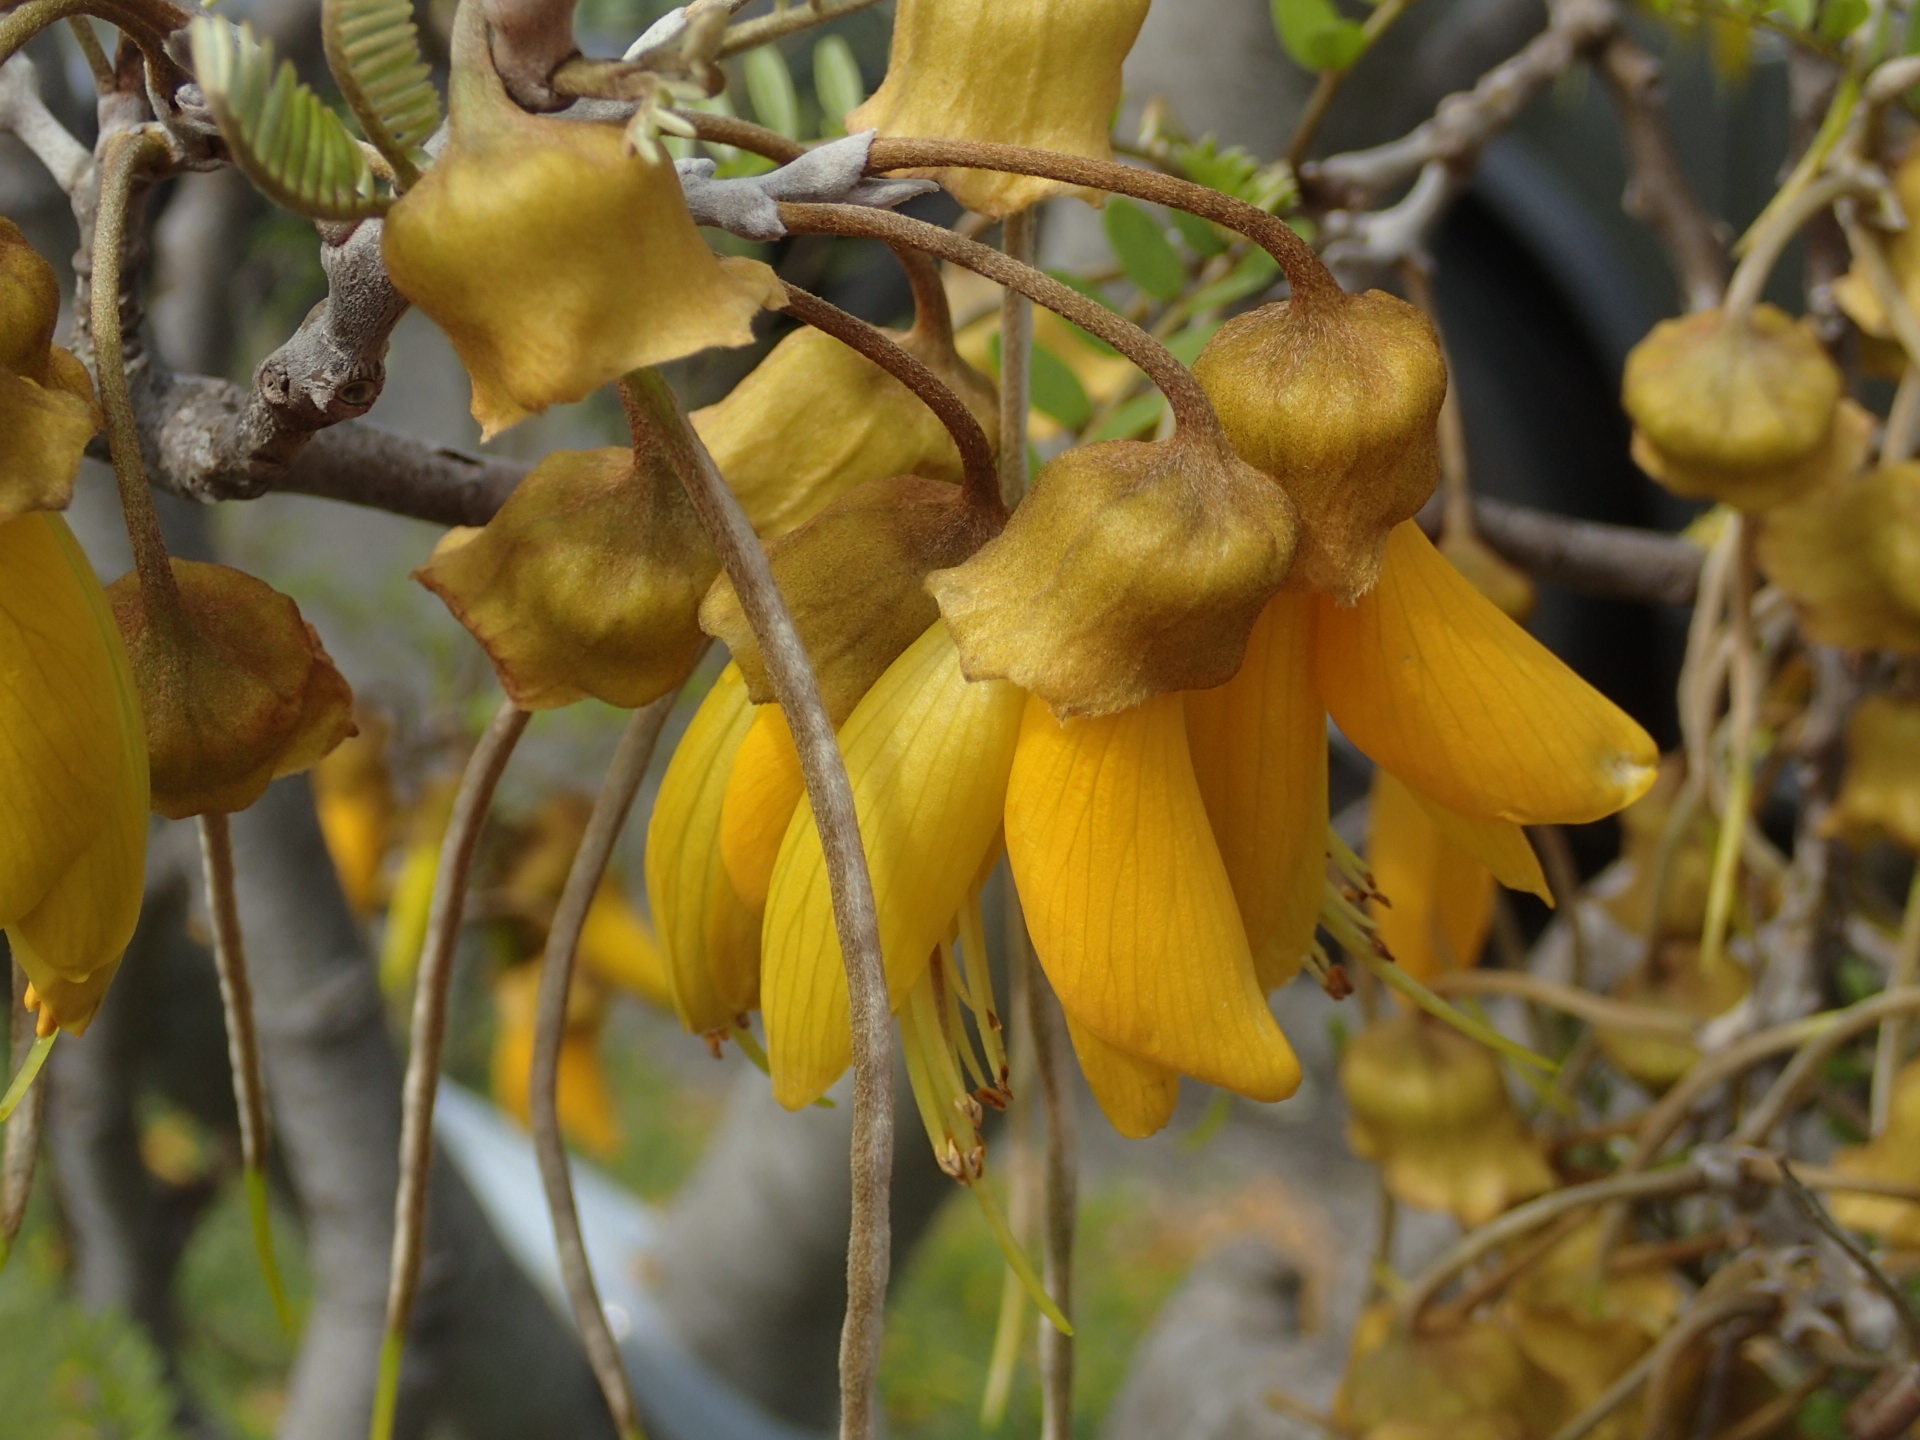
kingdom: Plantae
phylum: Tracheophyta
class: Magnoliopsida
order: Fabales
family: Fabaceae
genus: Sophora
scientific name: Sophora microphylla
